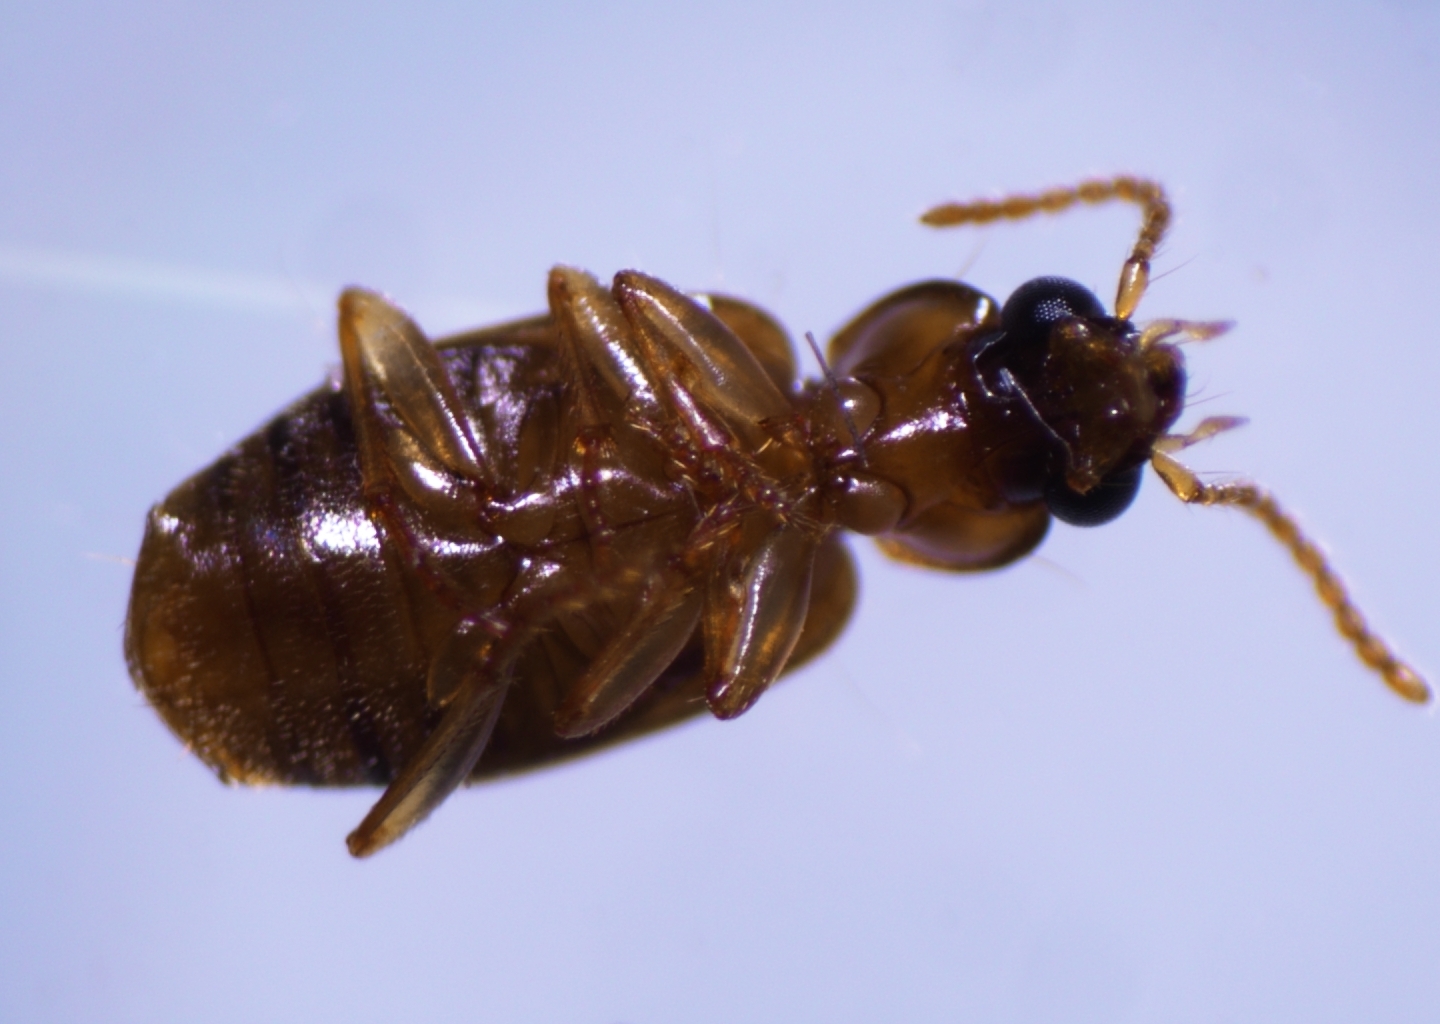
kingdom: Animalia
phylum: Arthropoda
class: Insecta
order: Coleoptera
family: Carabidae
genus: Perigona
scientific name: Perigona nigriceps
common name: Tawny harp ground beetle
